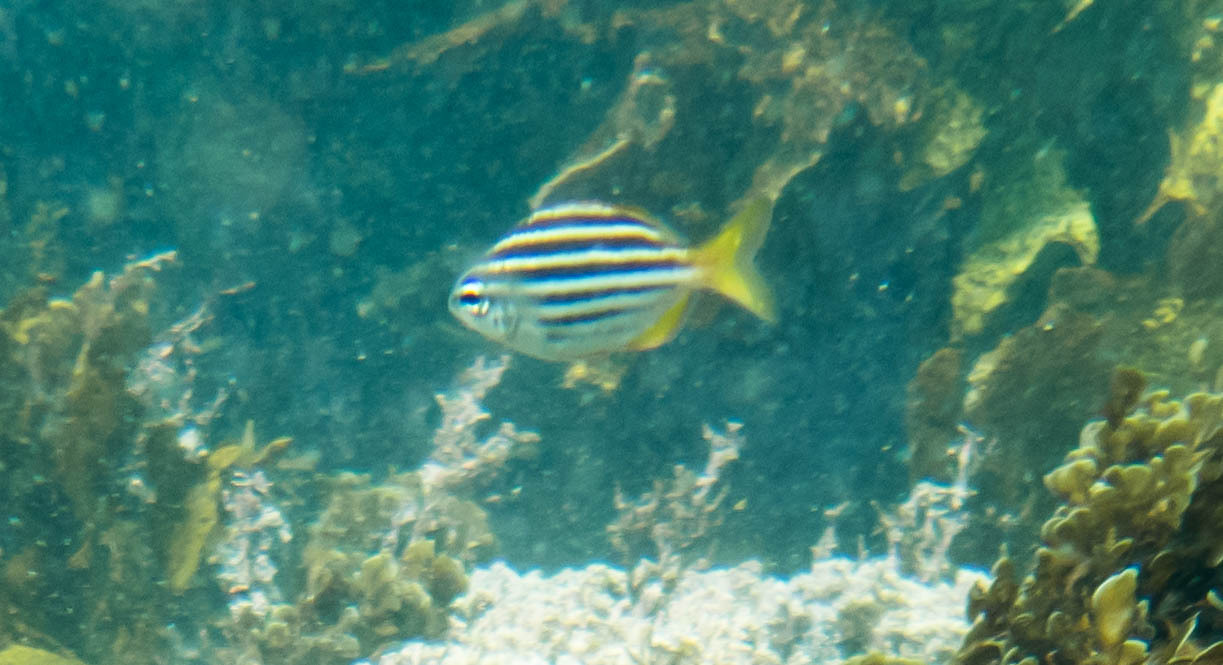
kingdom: Animalia
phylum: Chordata
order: Perciformes
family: Kyphosidae
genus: Atypichthys
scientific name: Atypichthys strigatus
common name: Australian mado
